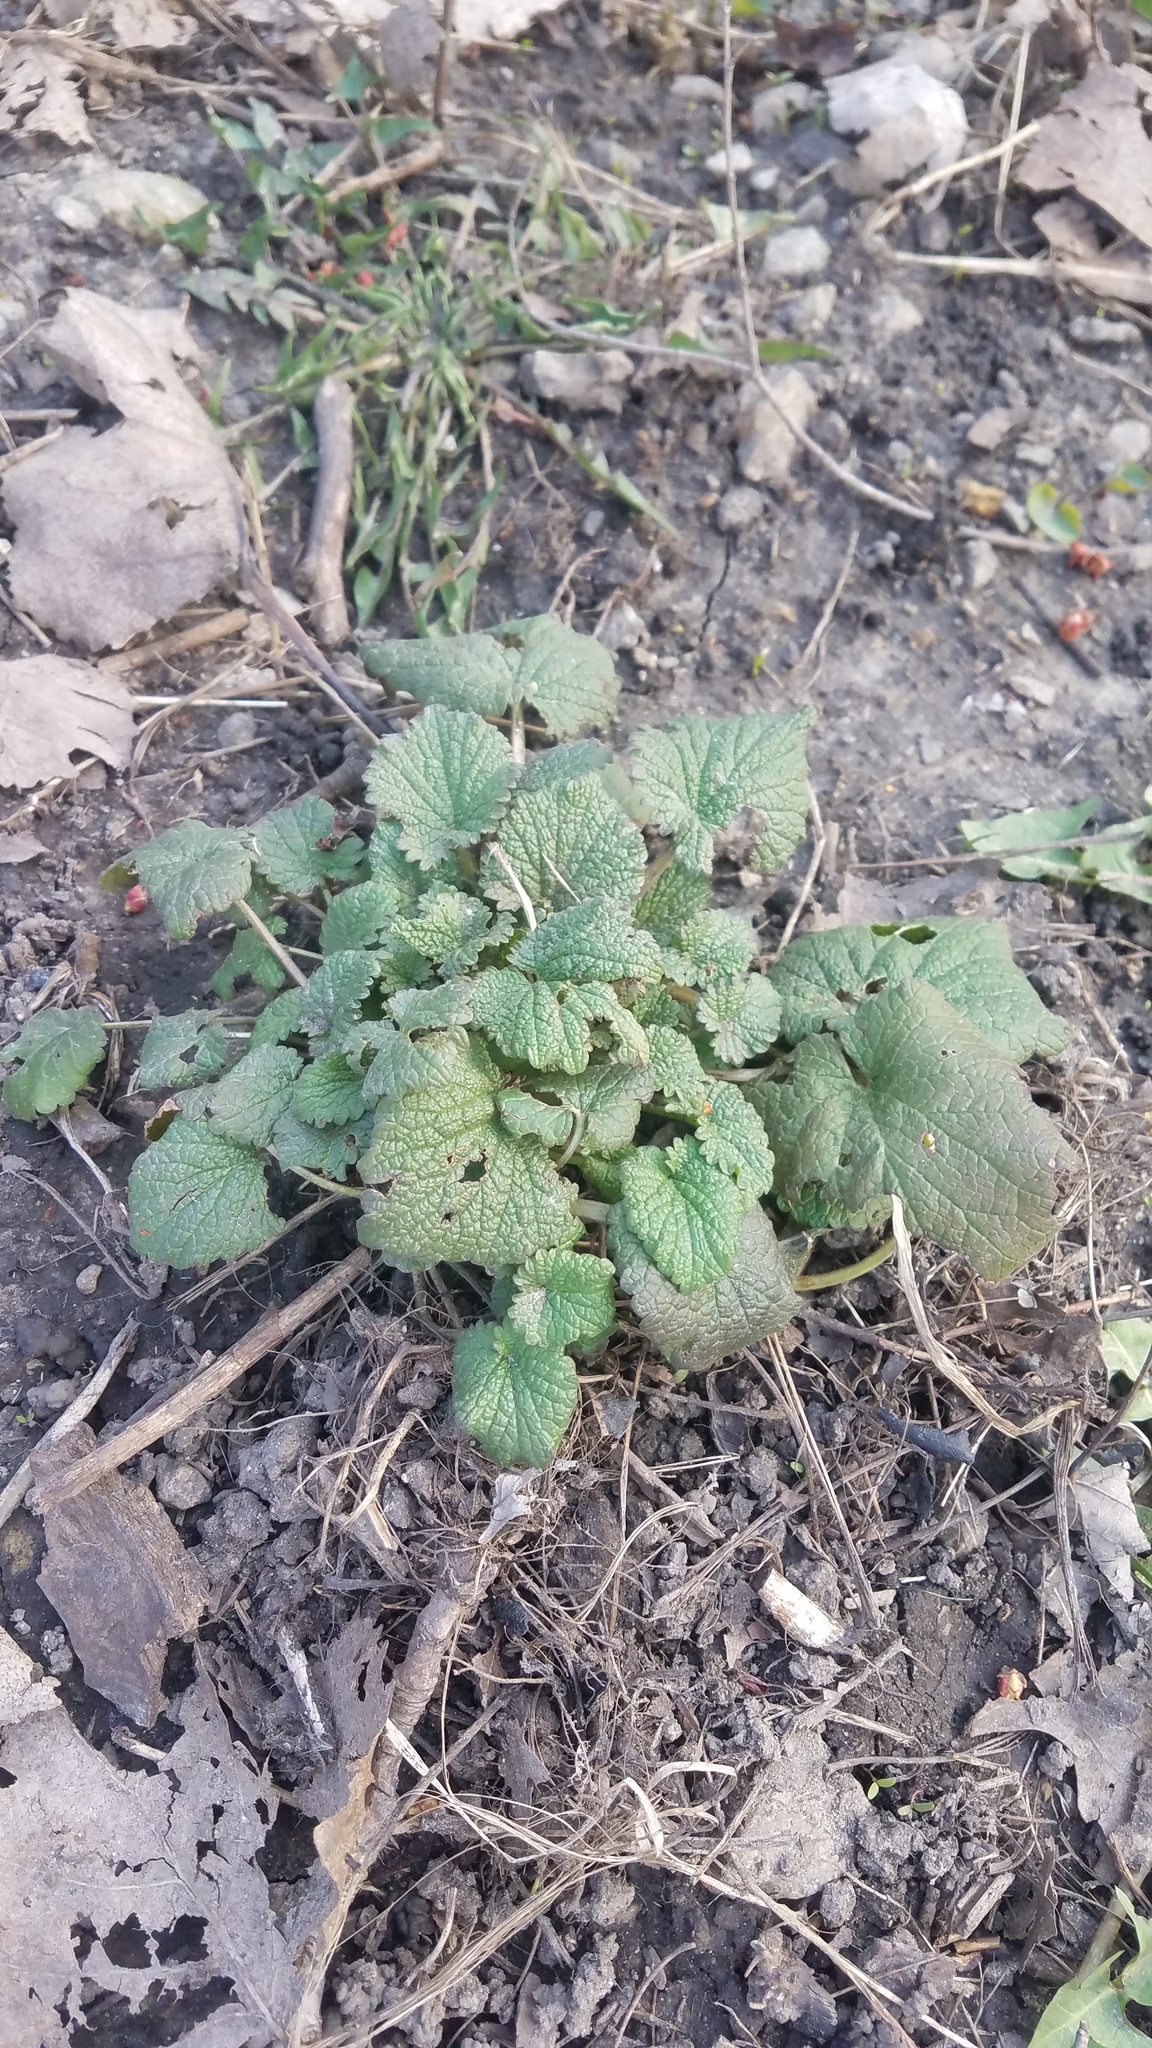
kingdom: Plantae
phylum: Tracheophyta
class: Magnoliopsida
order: Brassicales
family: Brassicaceae
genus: Alliaria
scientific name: Alliaria petiolata
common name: Garlic mustard
